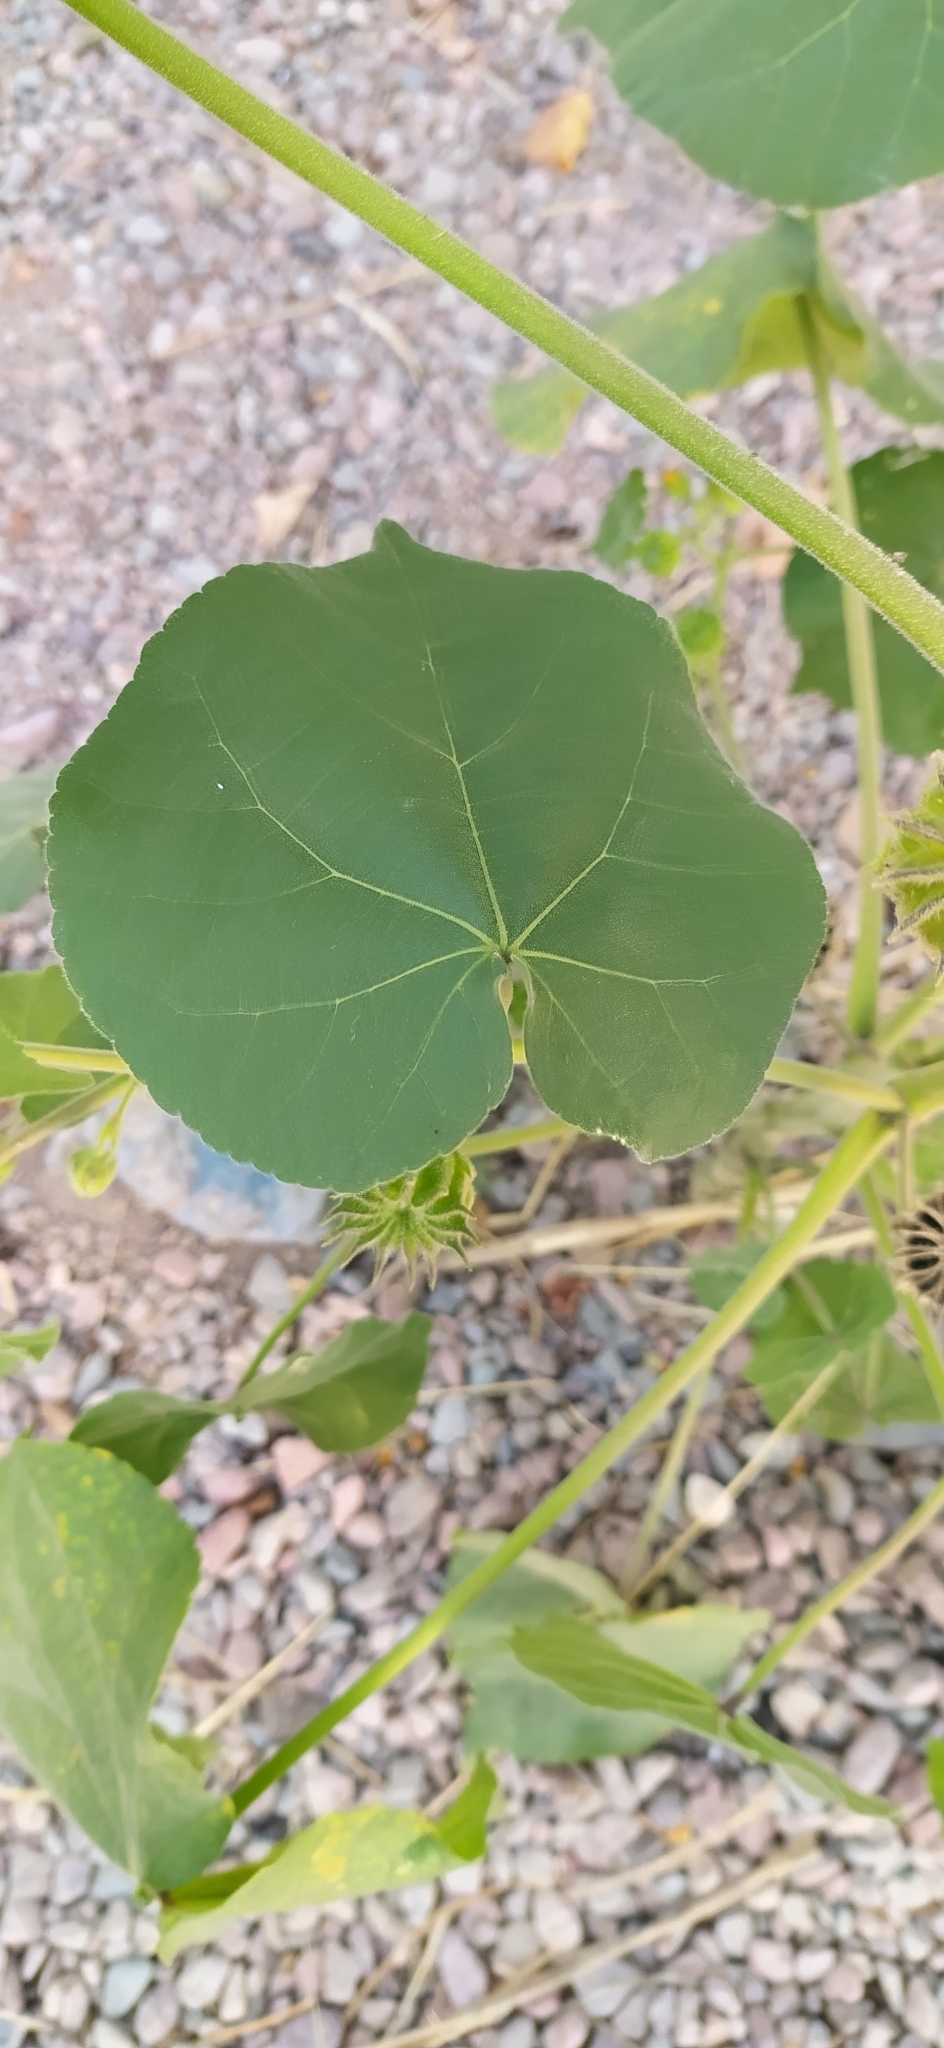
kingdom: Plantae
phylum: Tracheophyta
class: Magnoliopsida
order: Malvales
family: Malvaceae
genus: Abutilon
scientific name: Abutilon theophrasti
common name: Velvetleaf
